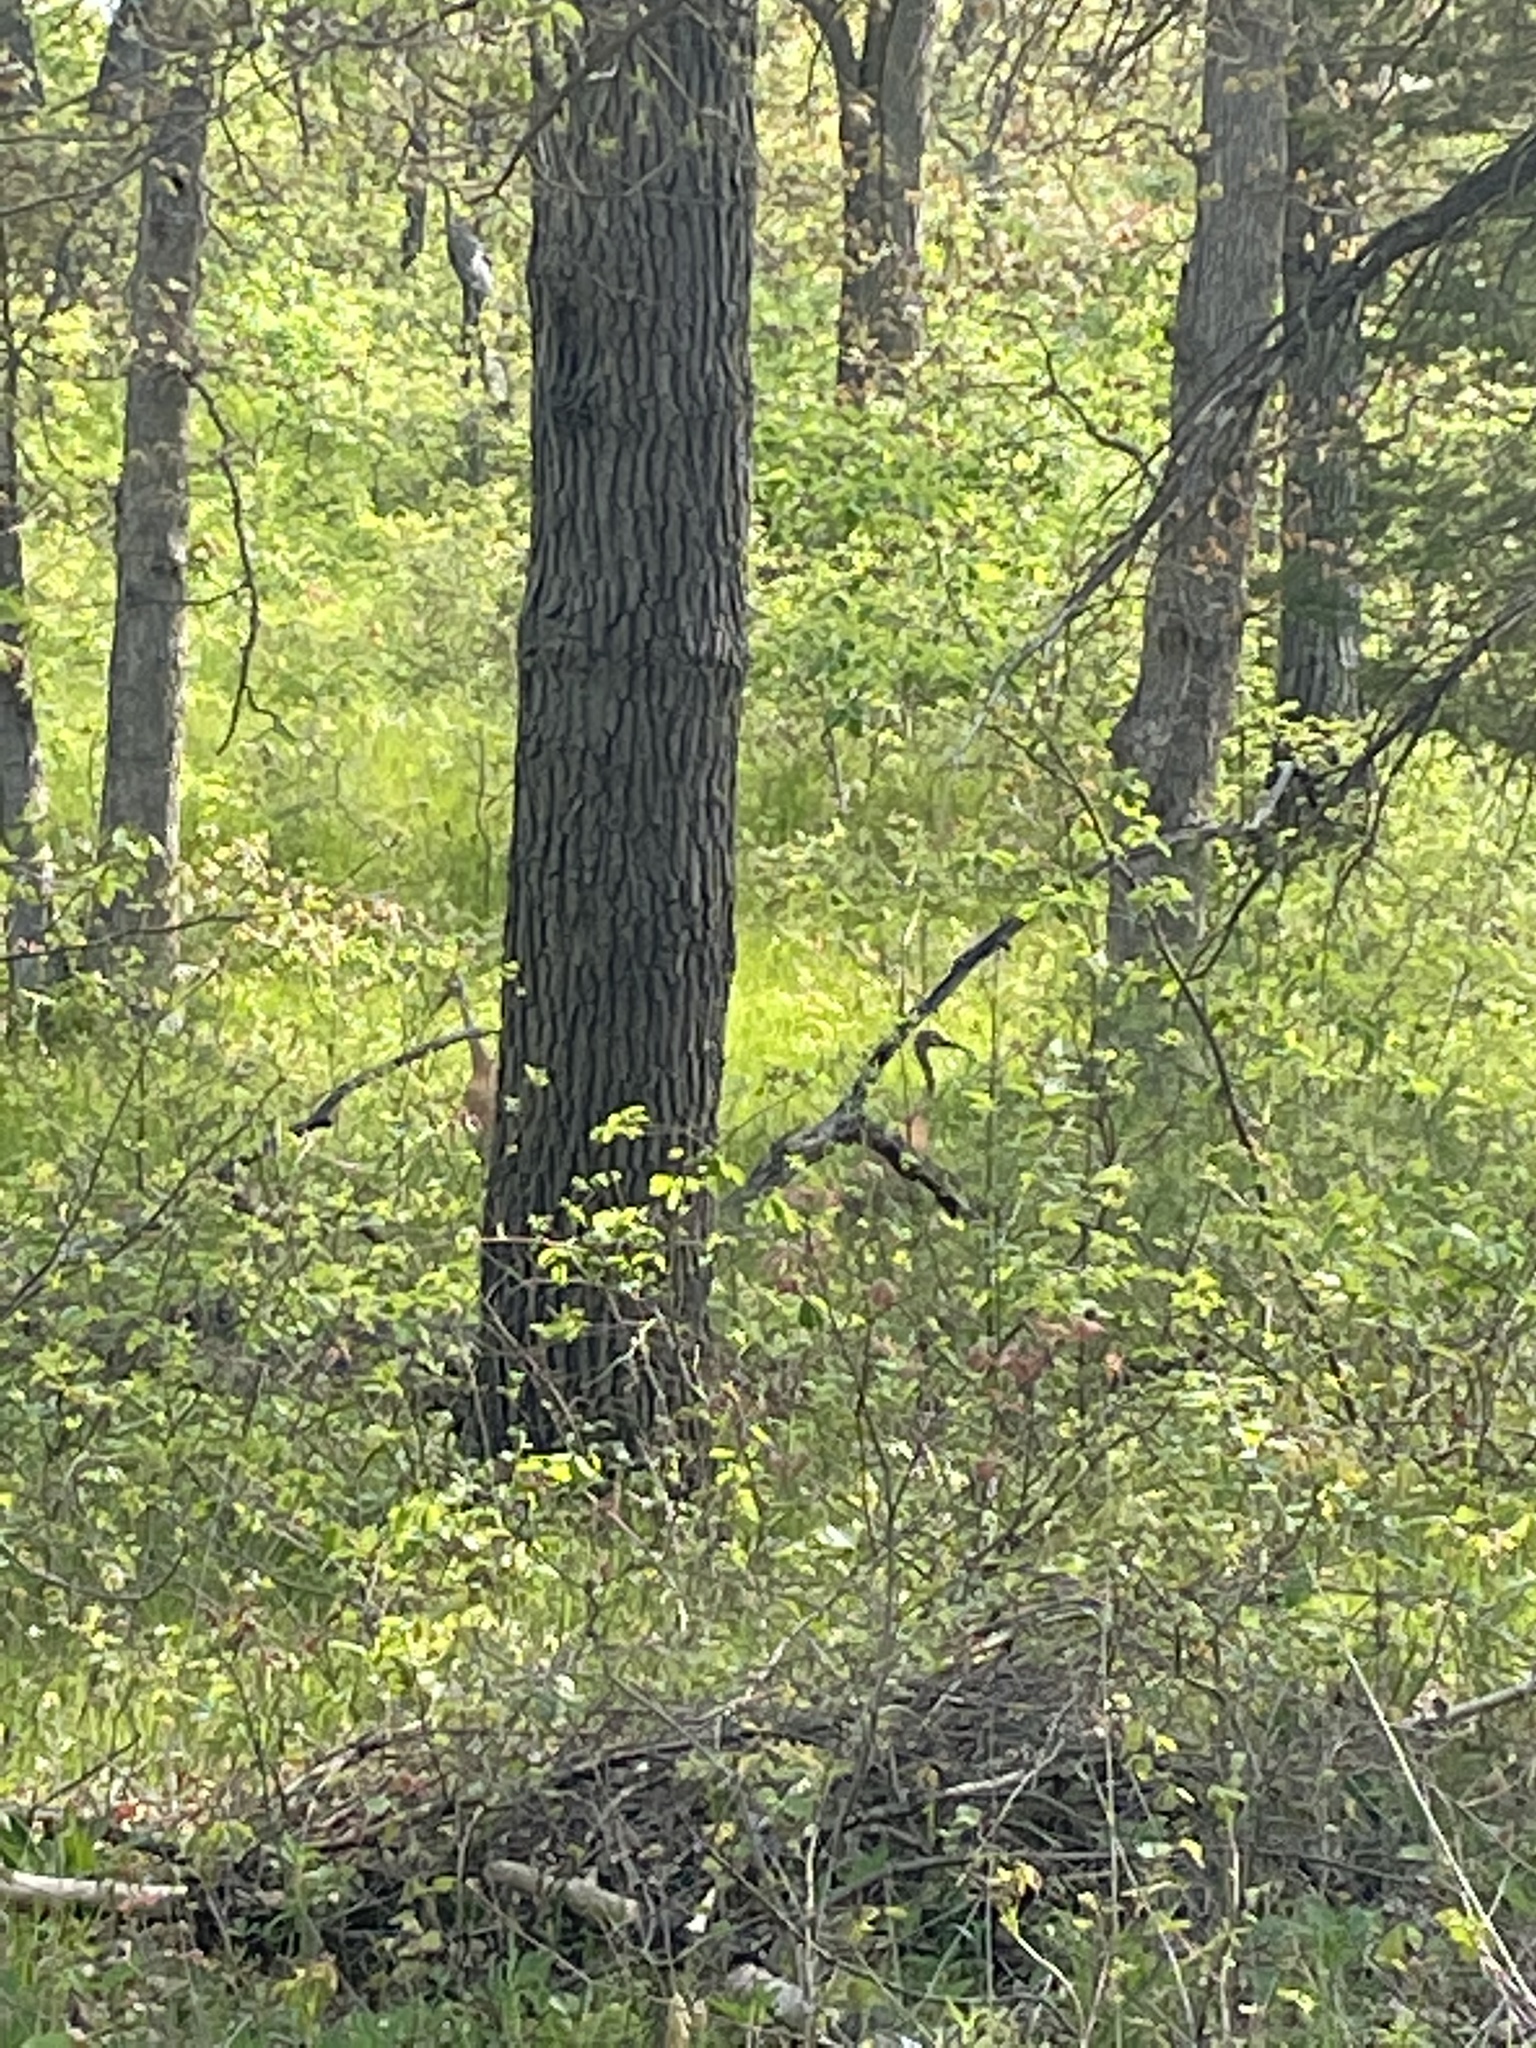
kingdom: Animalia
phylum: Chordata
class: Aves
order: Gruiformes
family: Gruidae
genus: Grus
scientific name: Grus canadensis
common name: Sandhill crane
